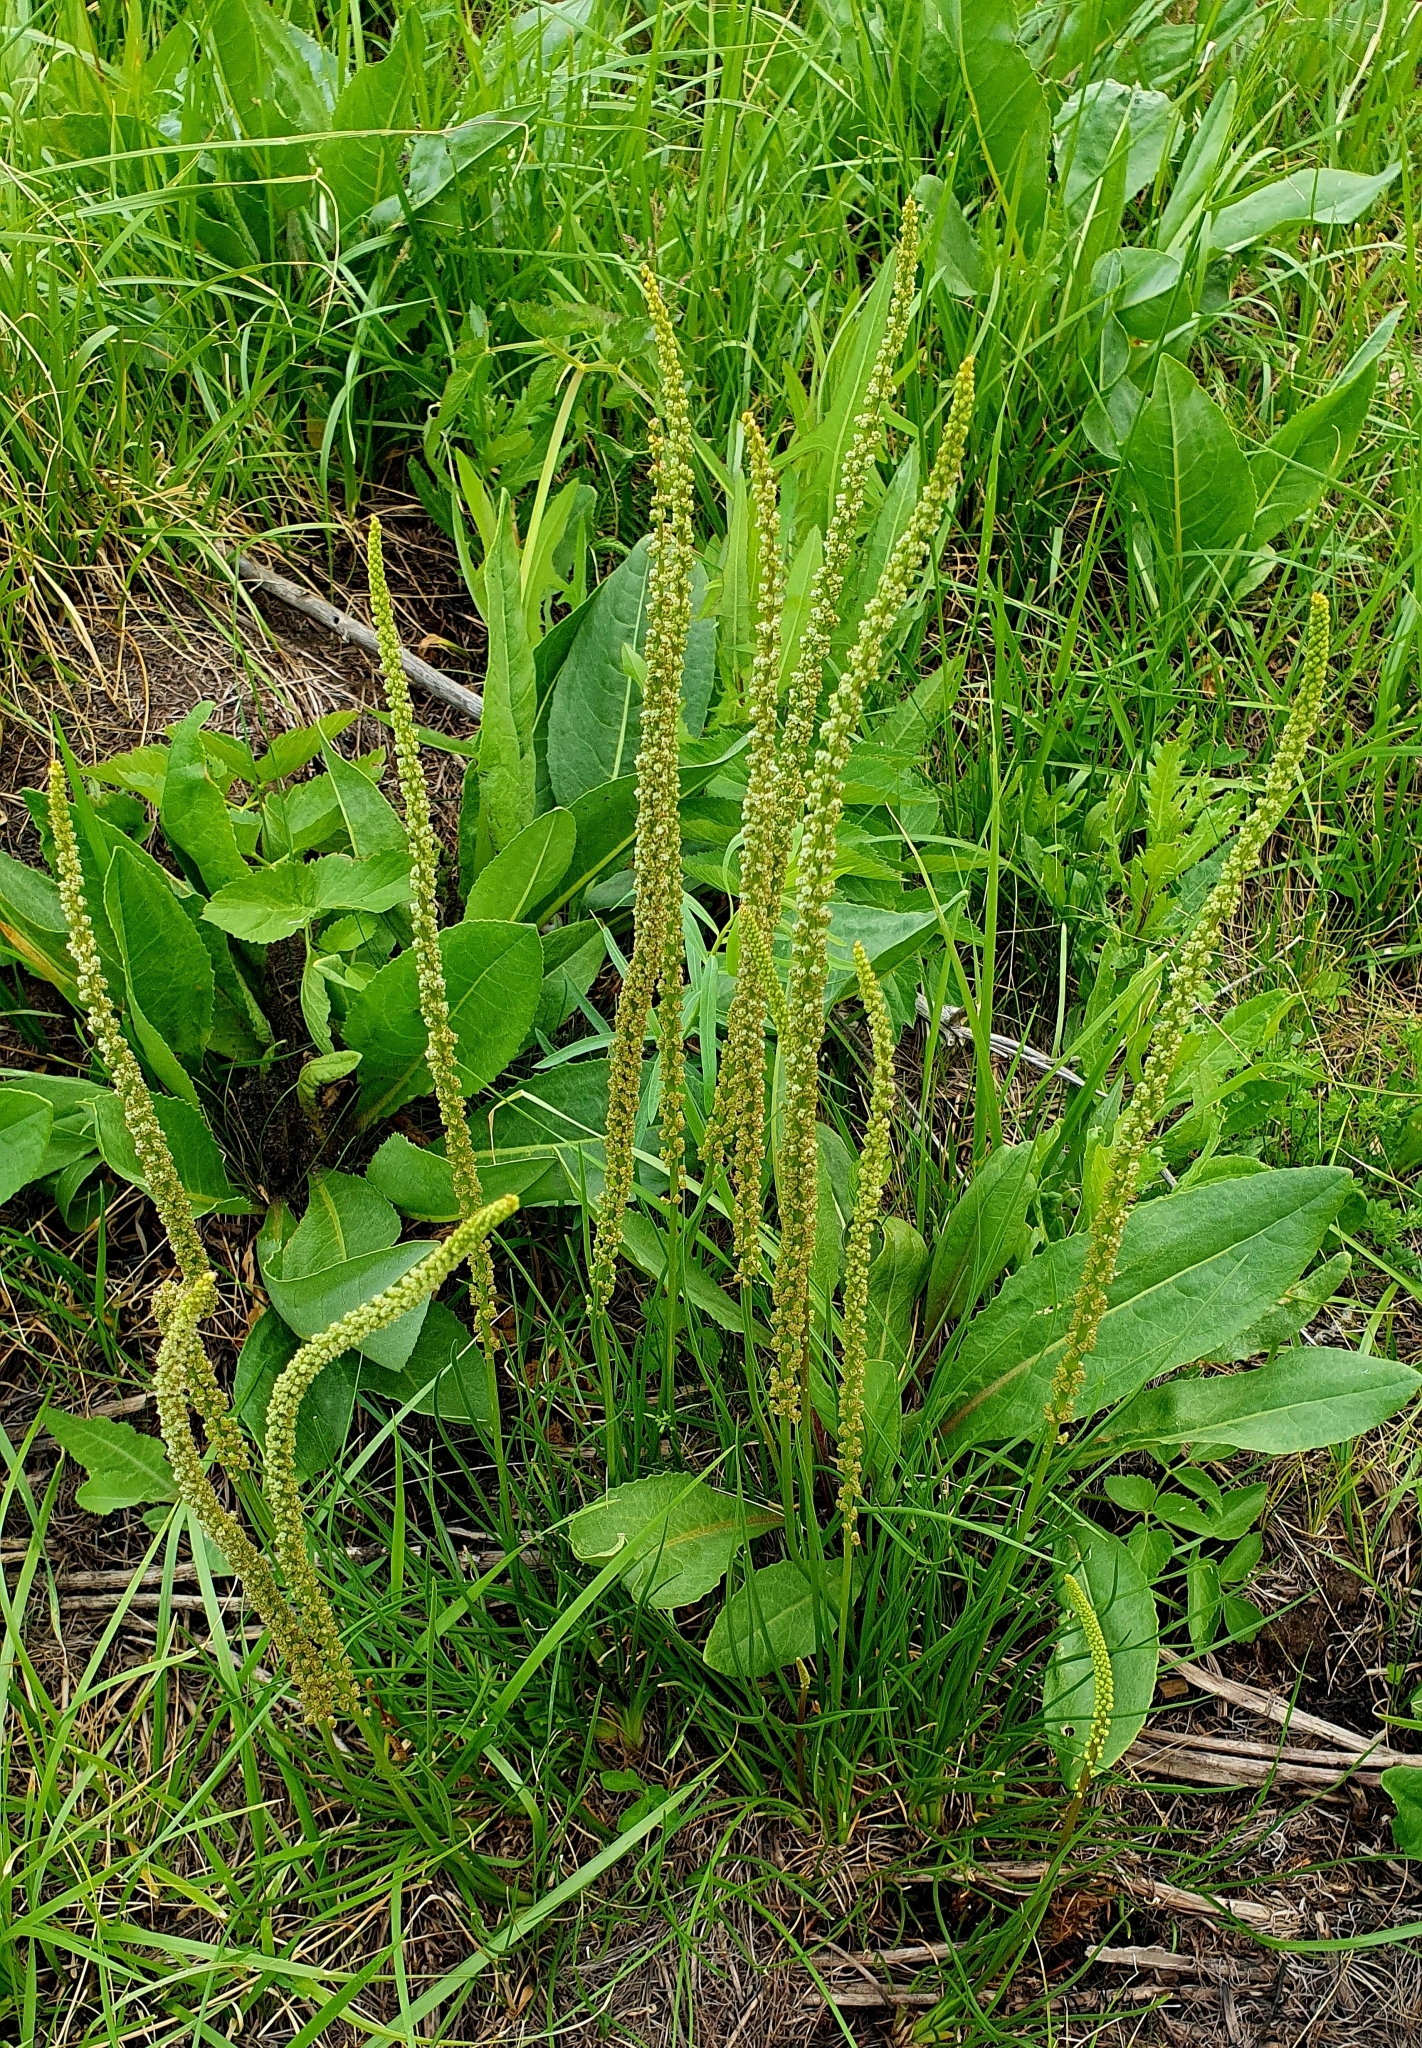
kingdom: Plantae
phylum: Tracheophyta
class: Liliopsida
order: Alismatales
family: Juncaginaceae
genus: Triglochin
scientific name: Triglochin maritima
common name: Sea arrowgrass
